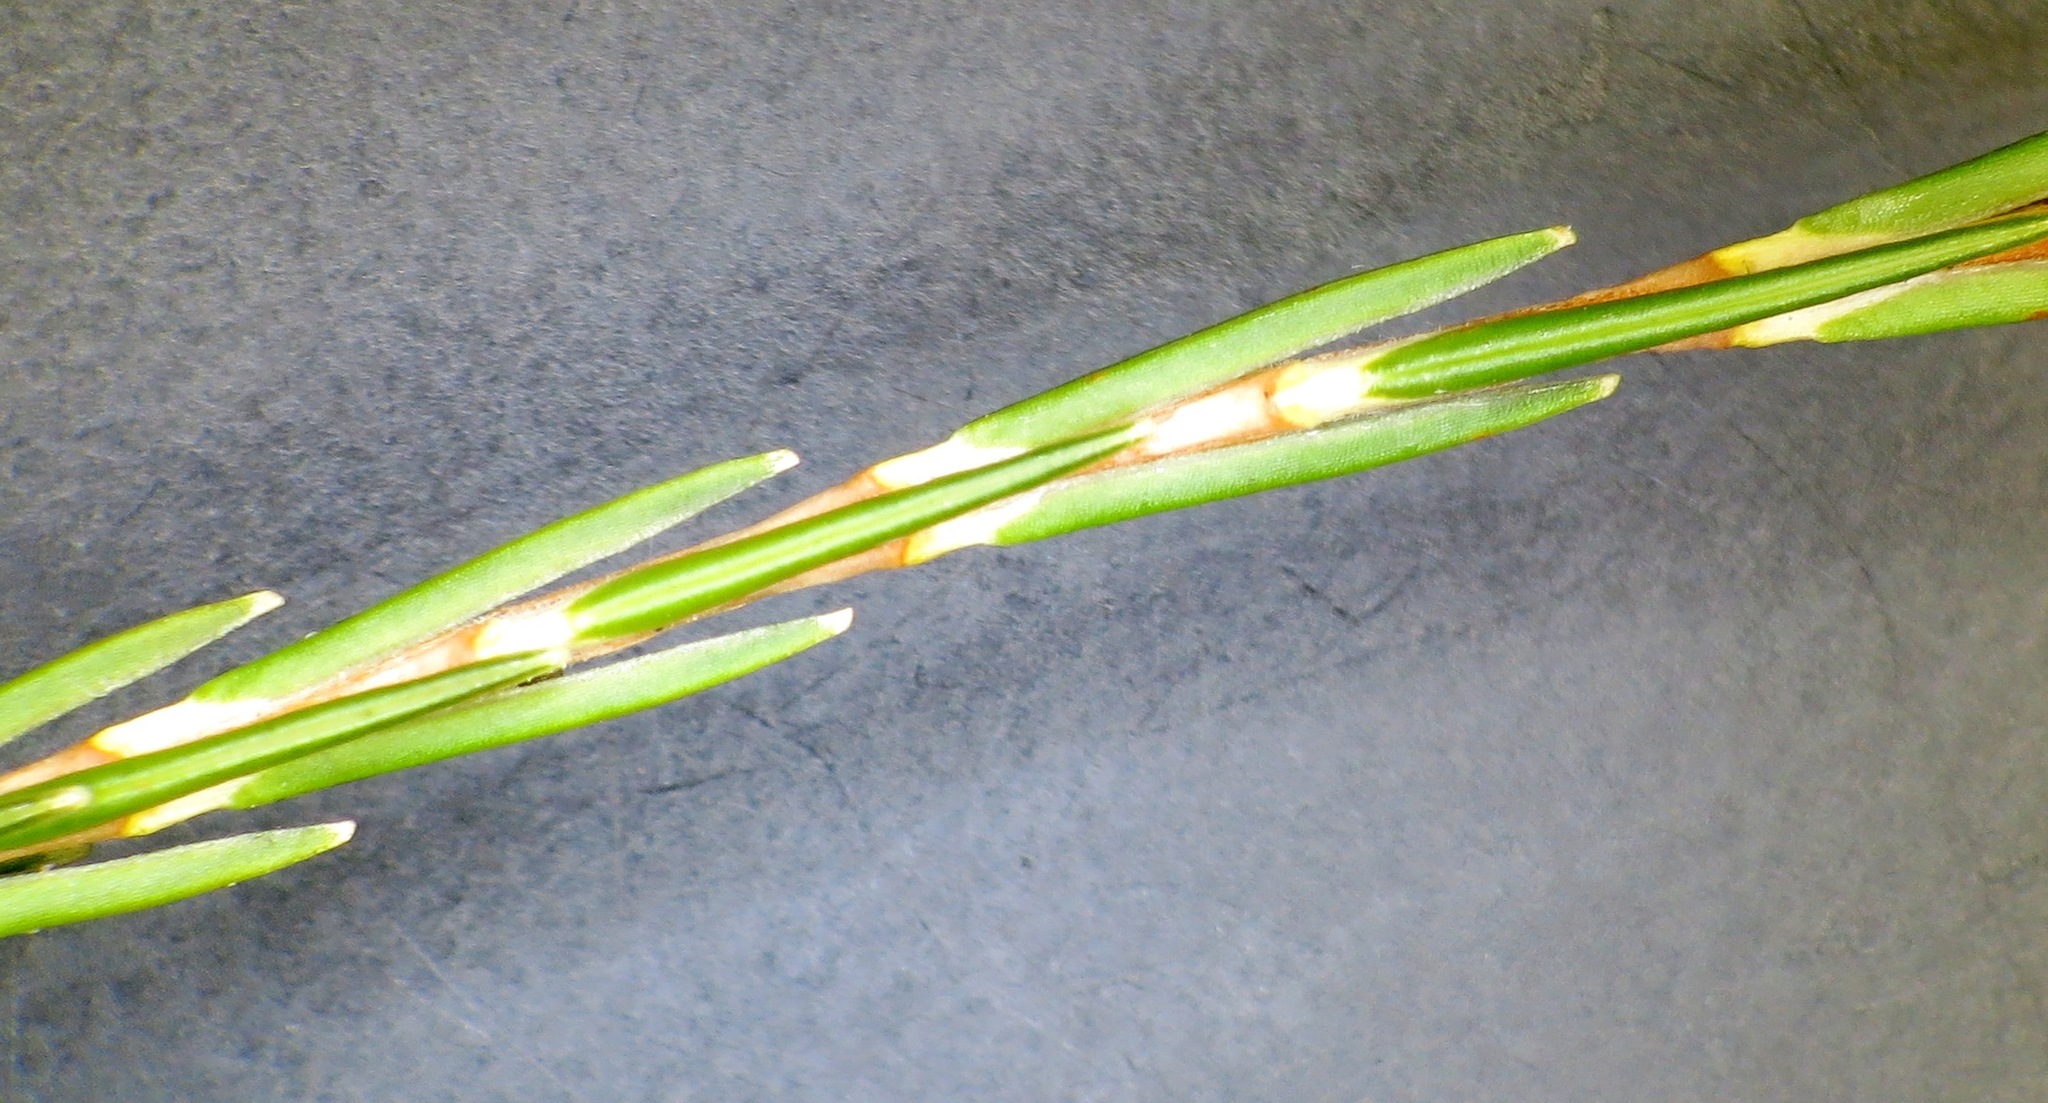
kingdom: Plantae
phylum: Tracheophyta
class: Magnoliopsida
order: Ericales
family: Ericaceae
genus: Erica
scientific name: Erica dianthifolia
